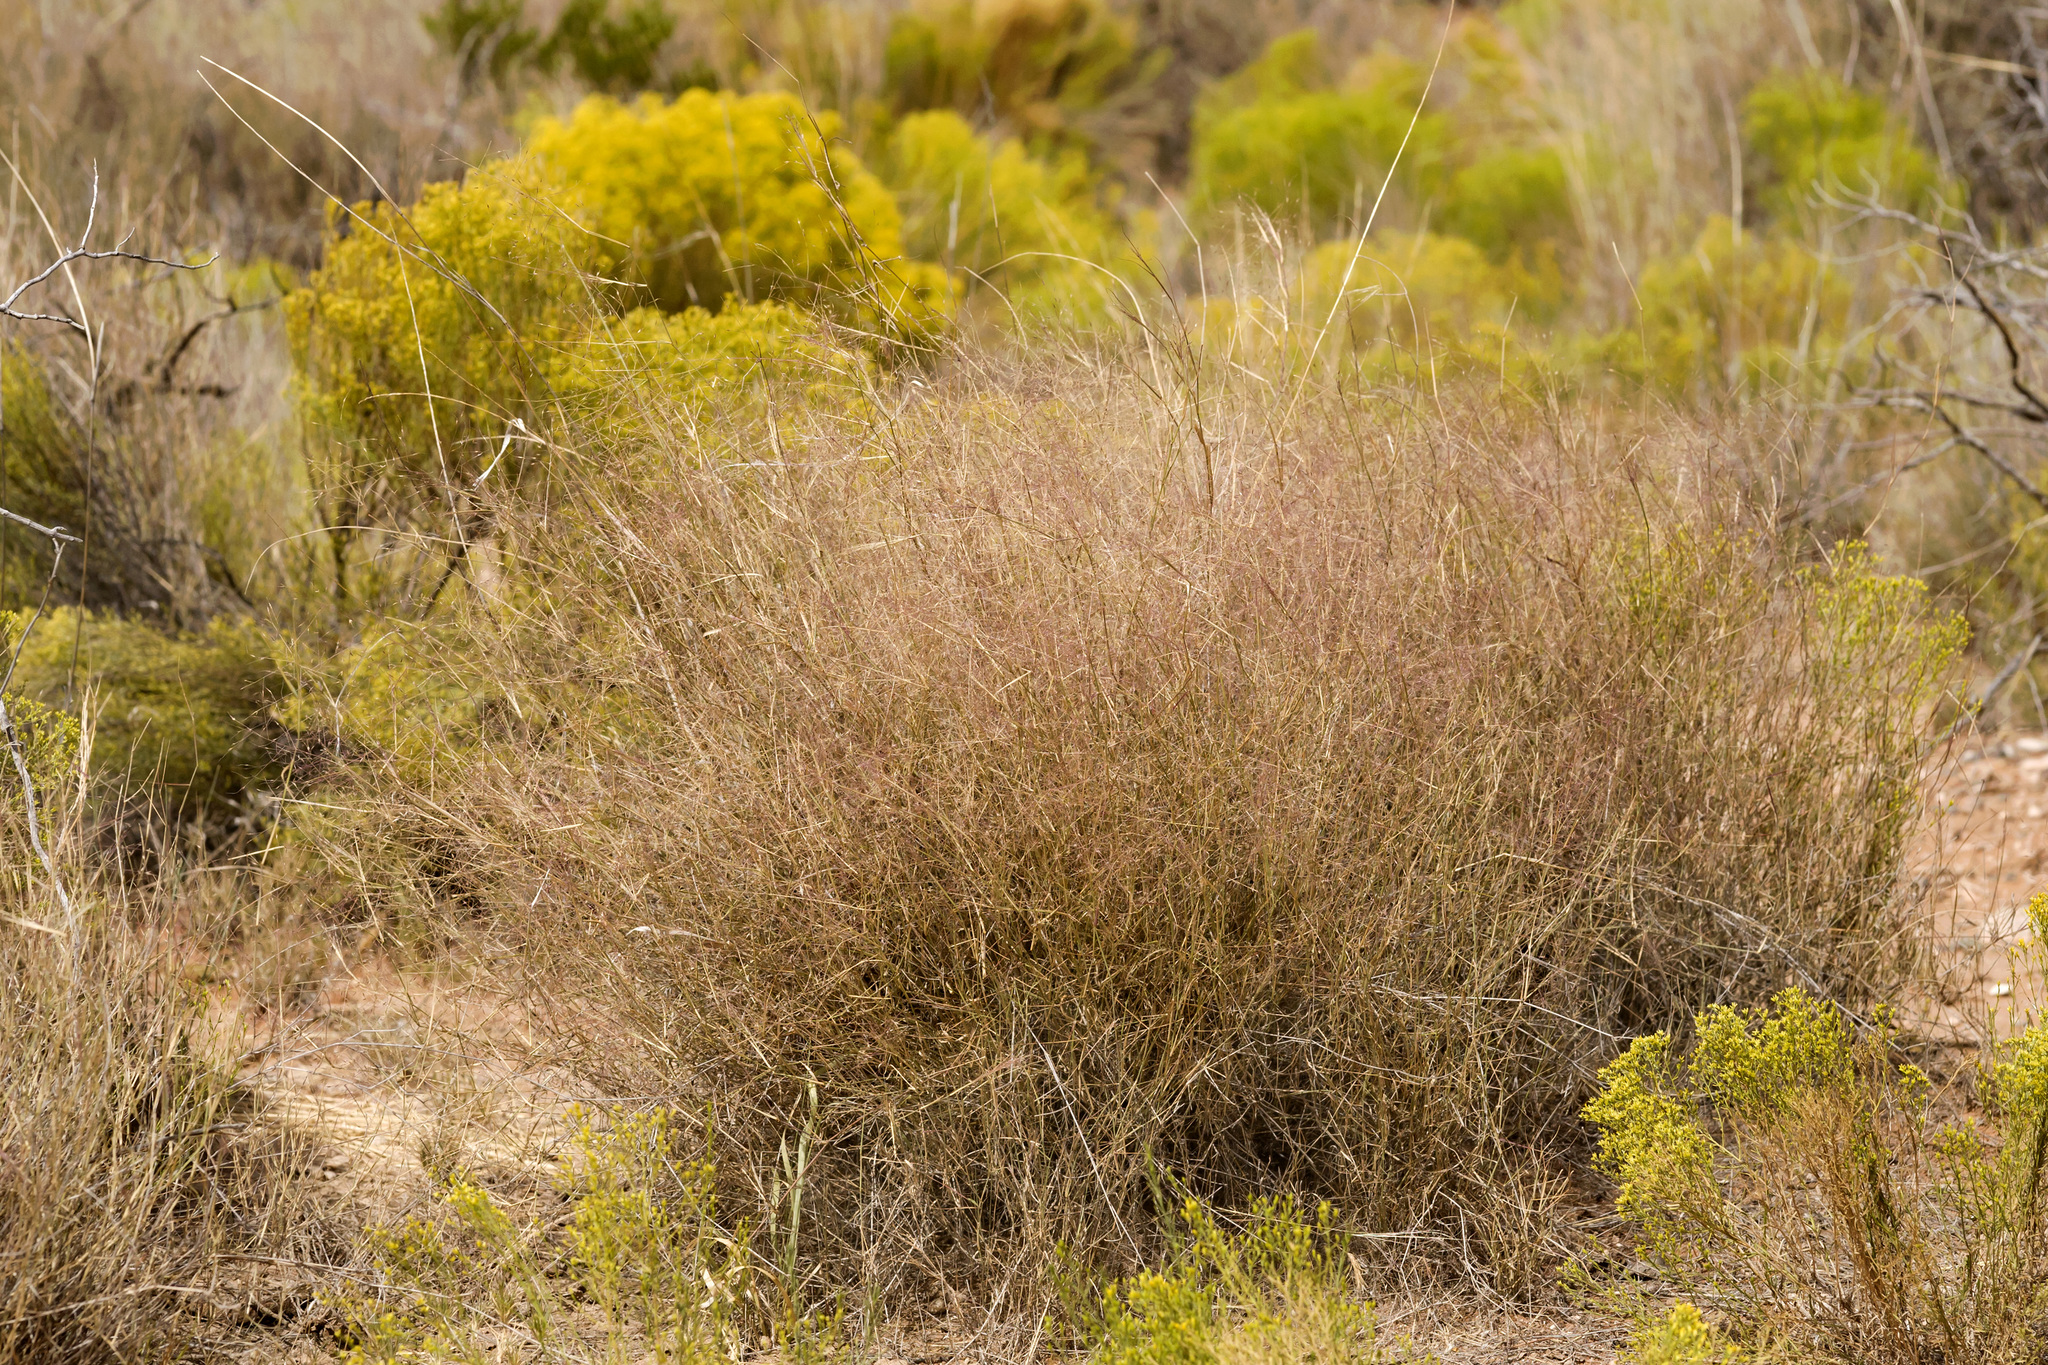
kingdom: Plantae
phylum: Tracheophyta
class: Liliopsida
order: Poales
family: Poaceae
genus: Muhlenbergia
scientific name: Muhlenbergia porteri
